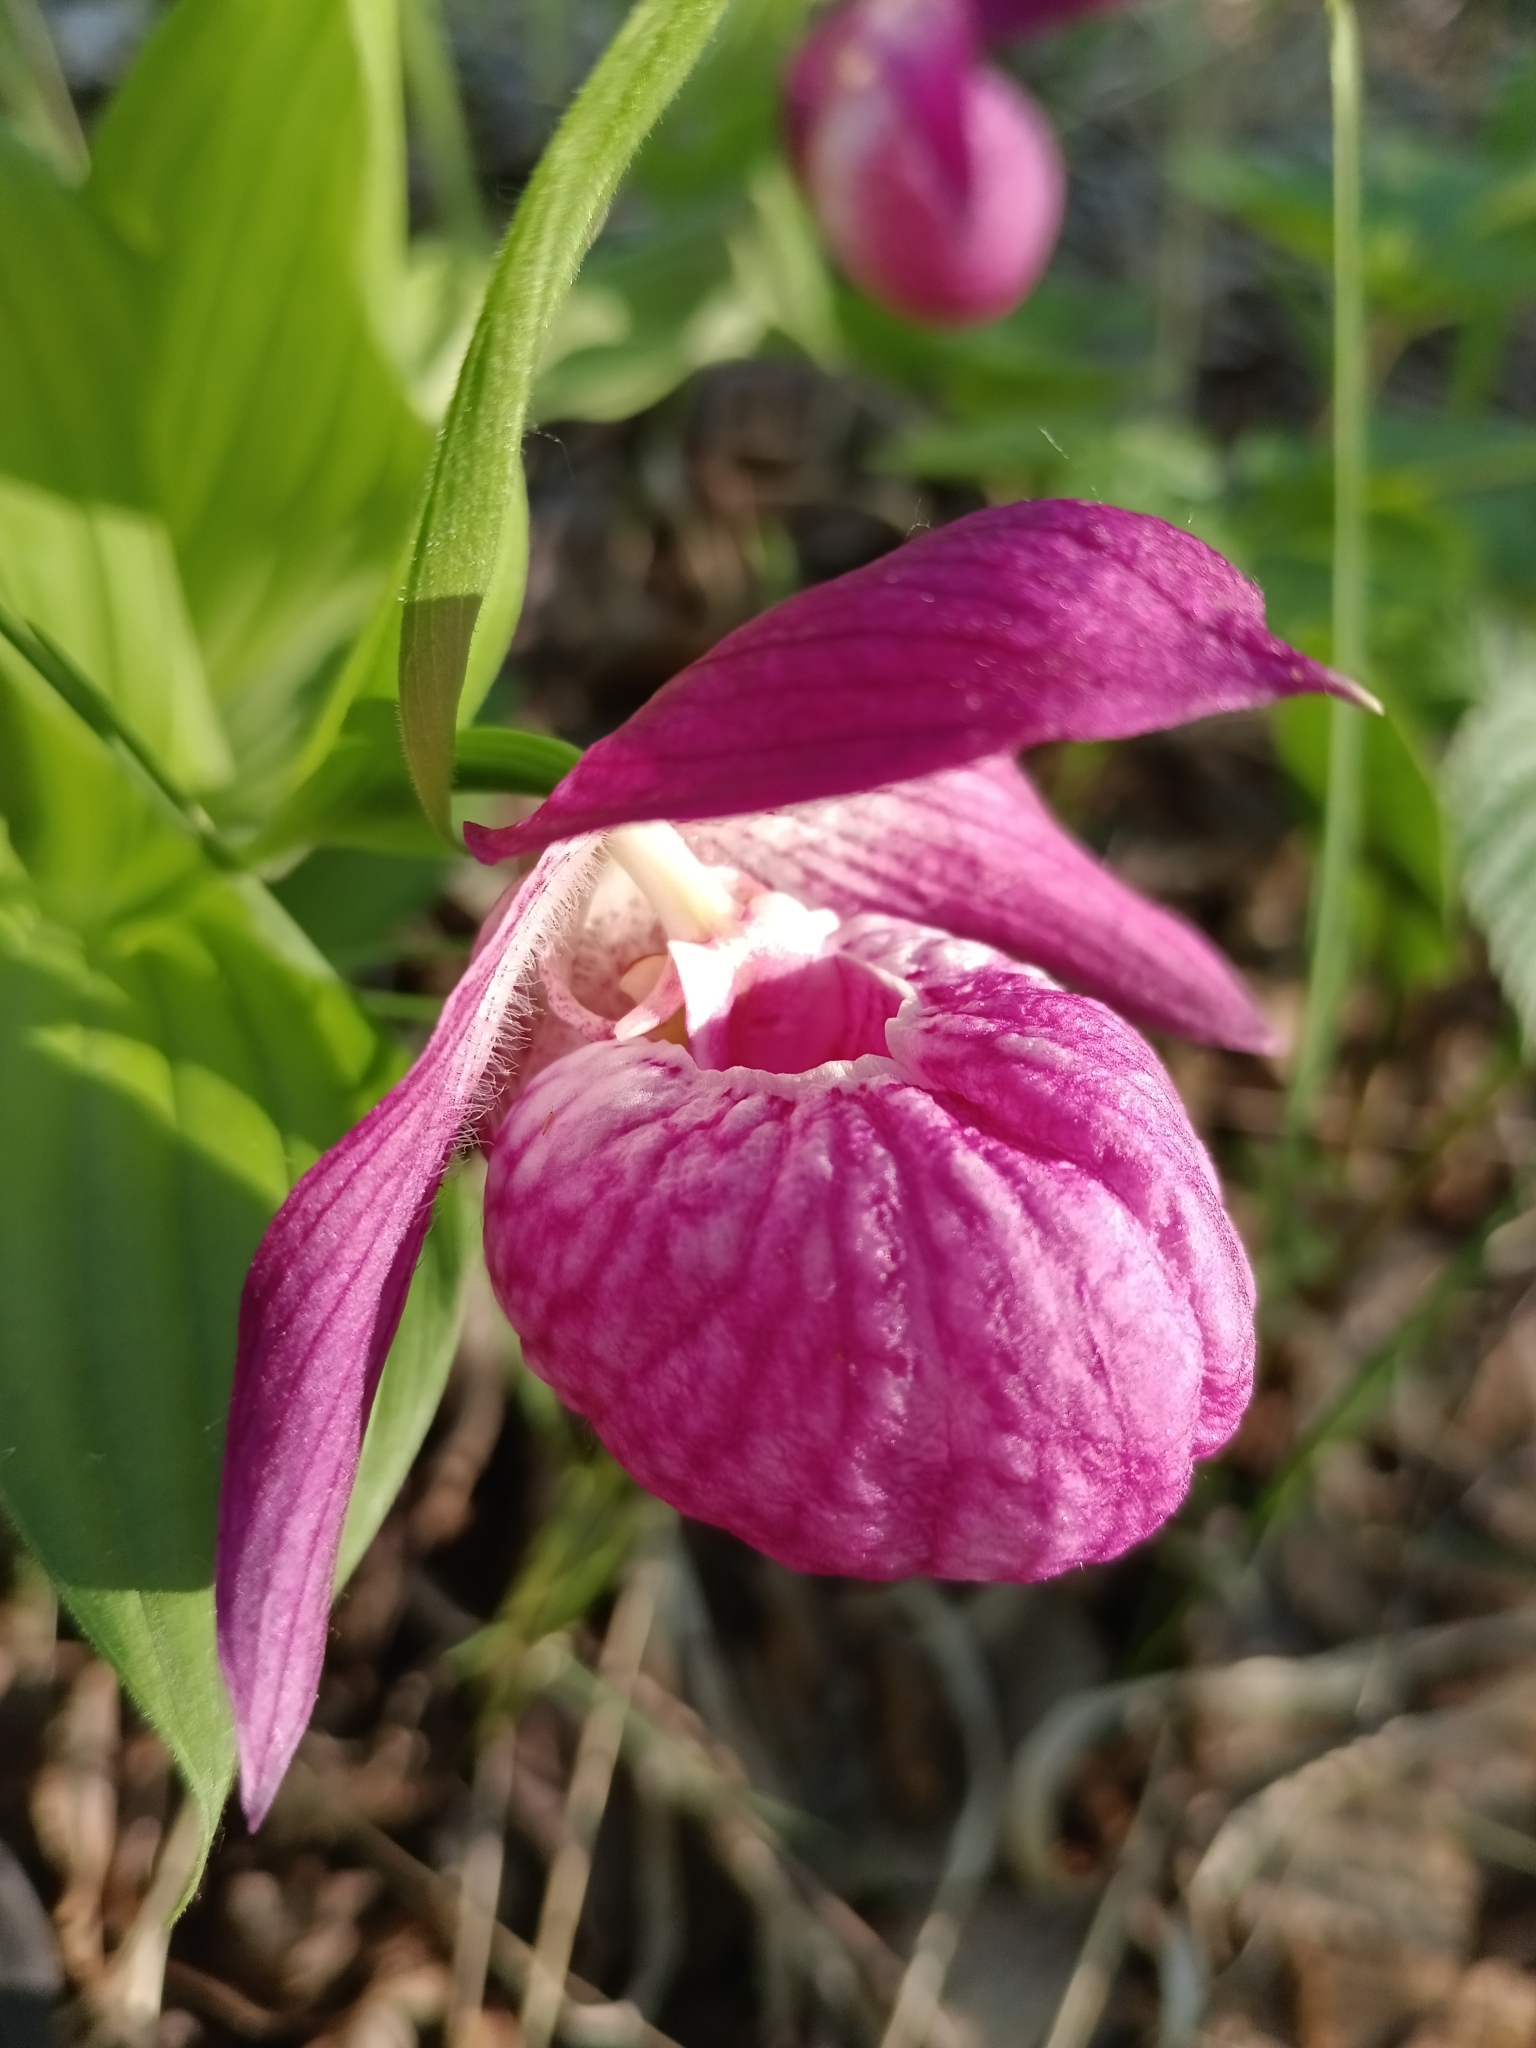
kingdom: Plantae
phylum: Tracheophyta
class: Liliopsida
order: Asparagales
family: Orchidaceae
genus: Cypripedium
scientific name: Cypripedium macranthos
